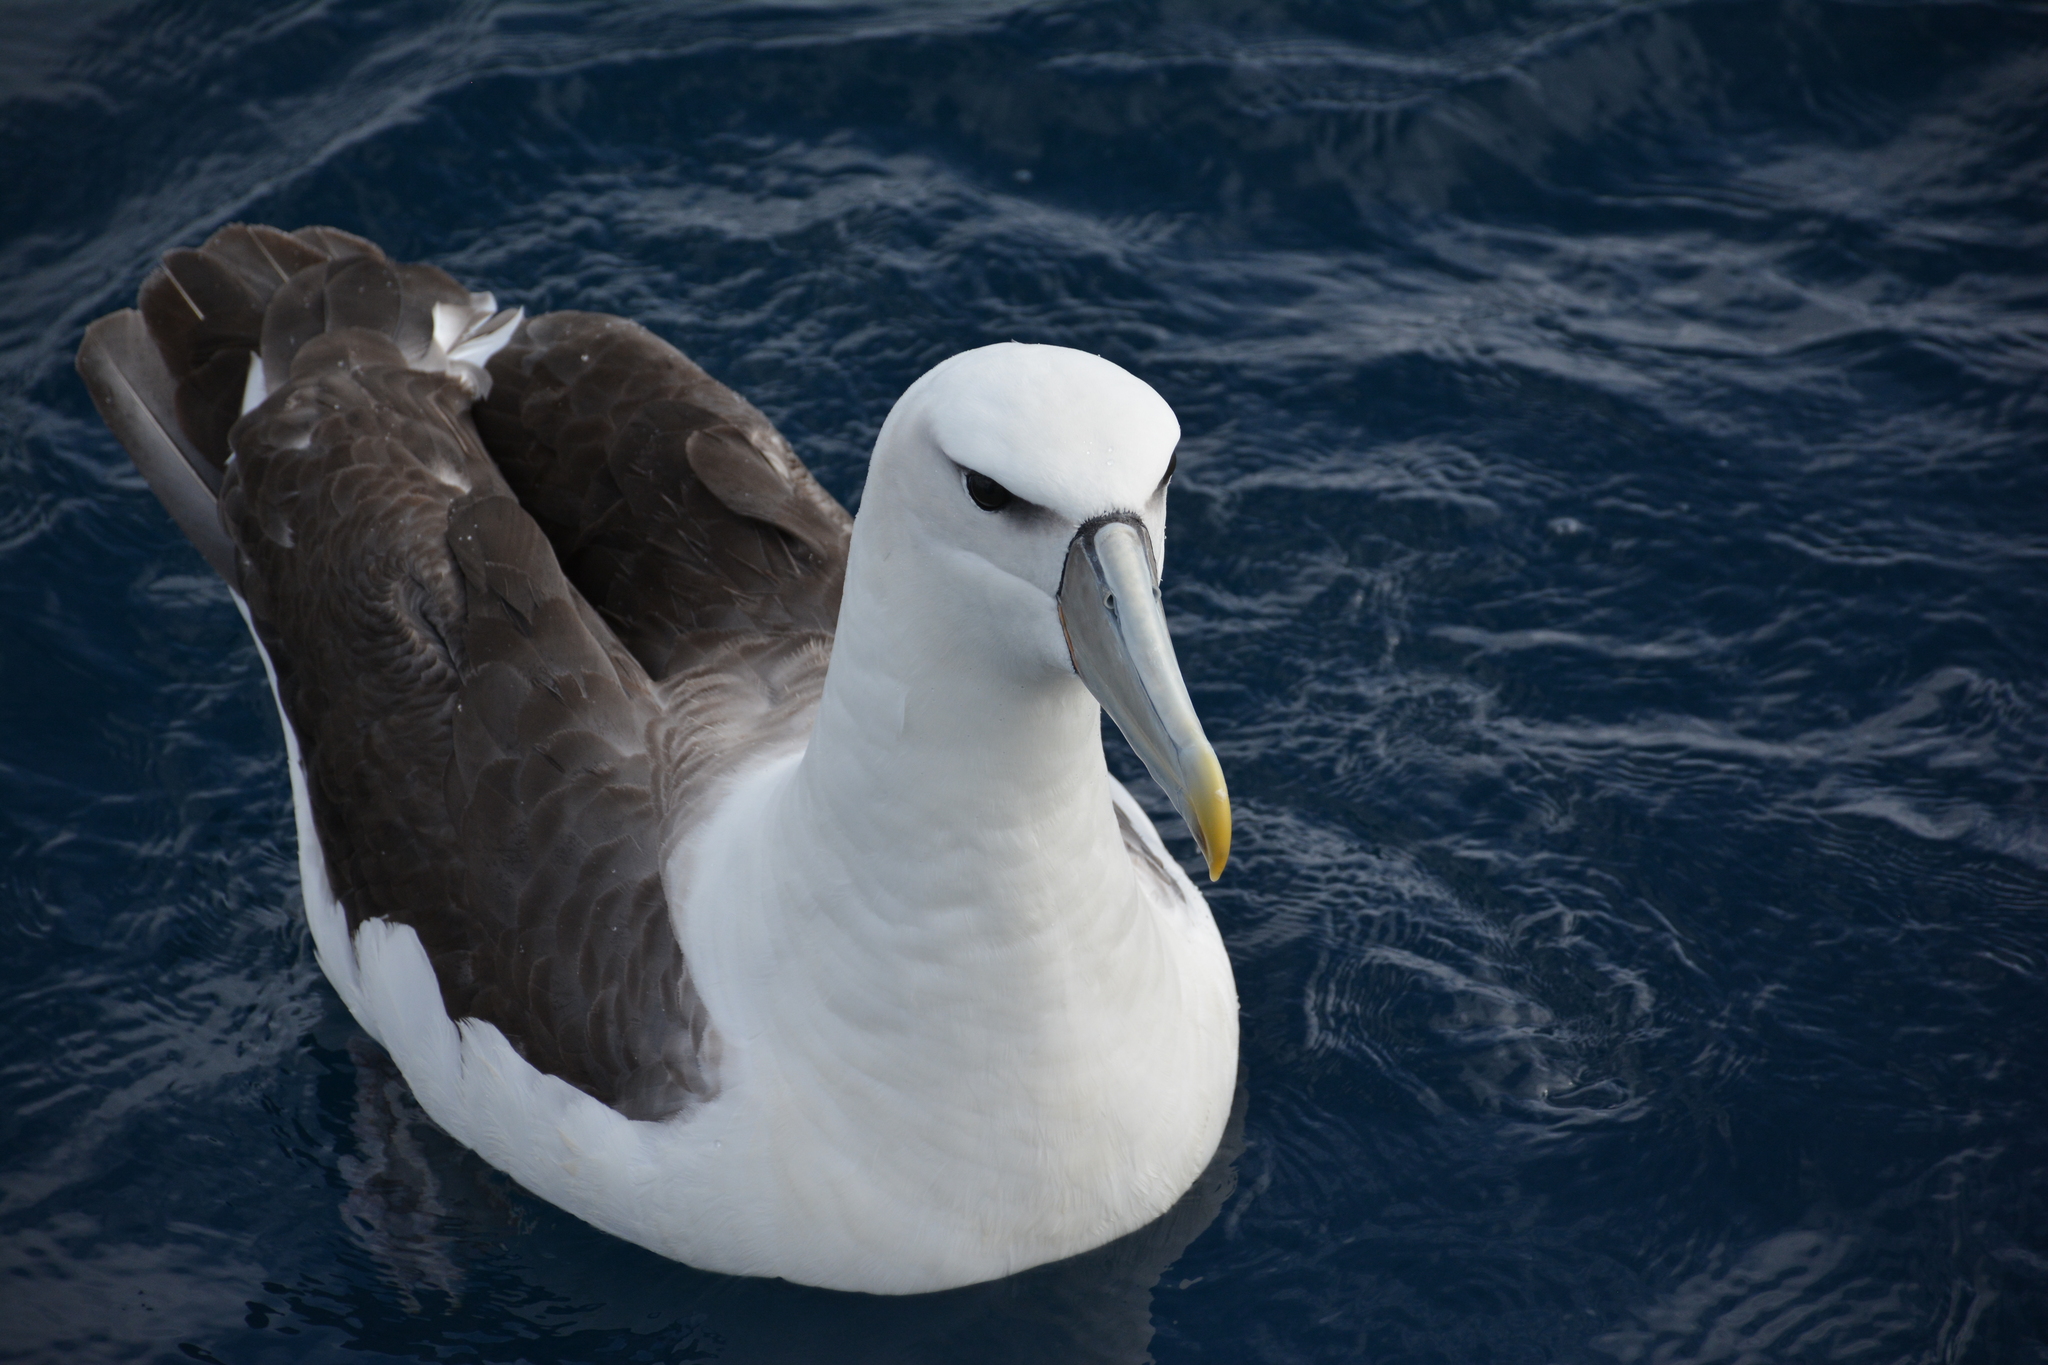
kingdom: Animalia
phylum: Chordata
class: Aves
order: Procellariiformes
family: Diomedeidae
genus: Thalassarche
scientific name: Thalassarche cauta
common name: Shy albatross
